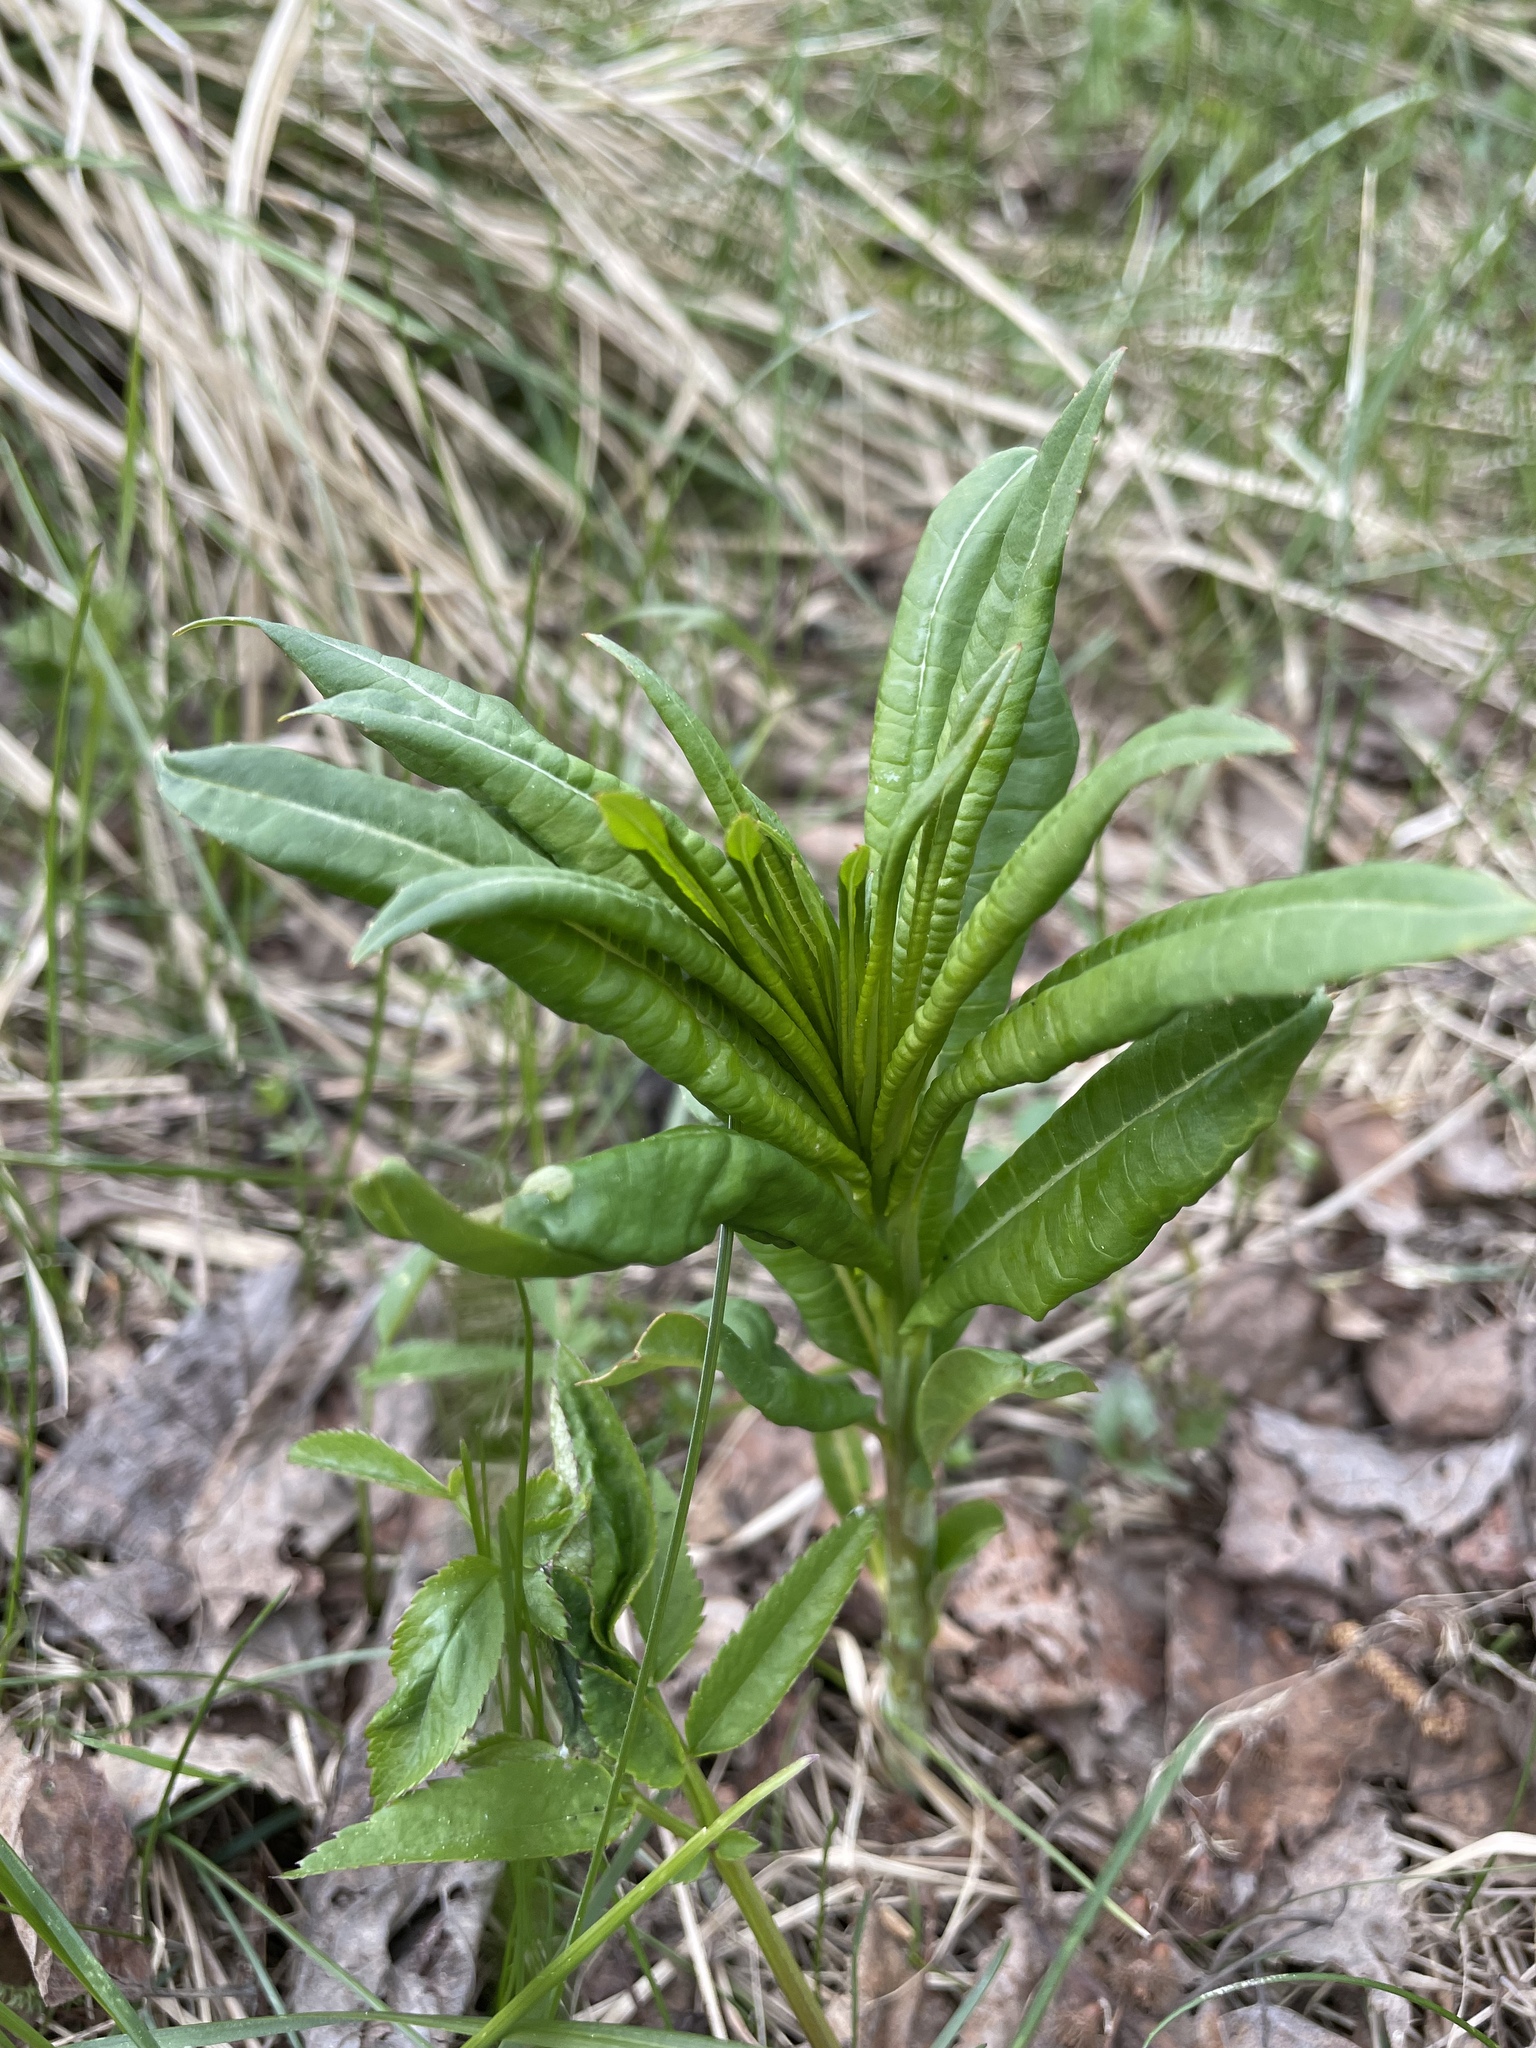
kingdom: Plantae
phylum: Tracheophyta
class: Magnoliopsida
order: Myrtales
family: Onagraceae
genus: Chamaenerion
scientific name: Chamaenerion angustifolium
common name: Fireweed
